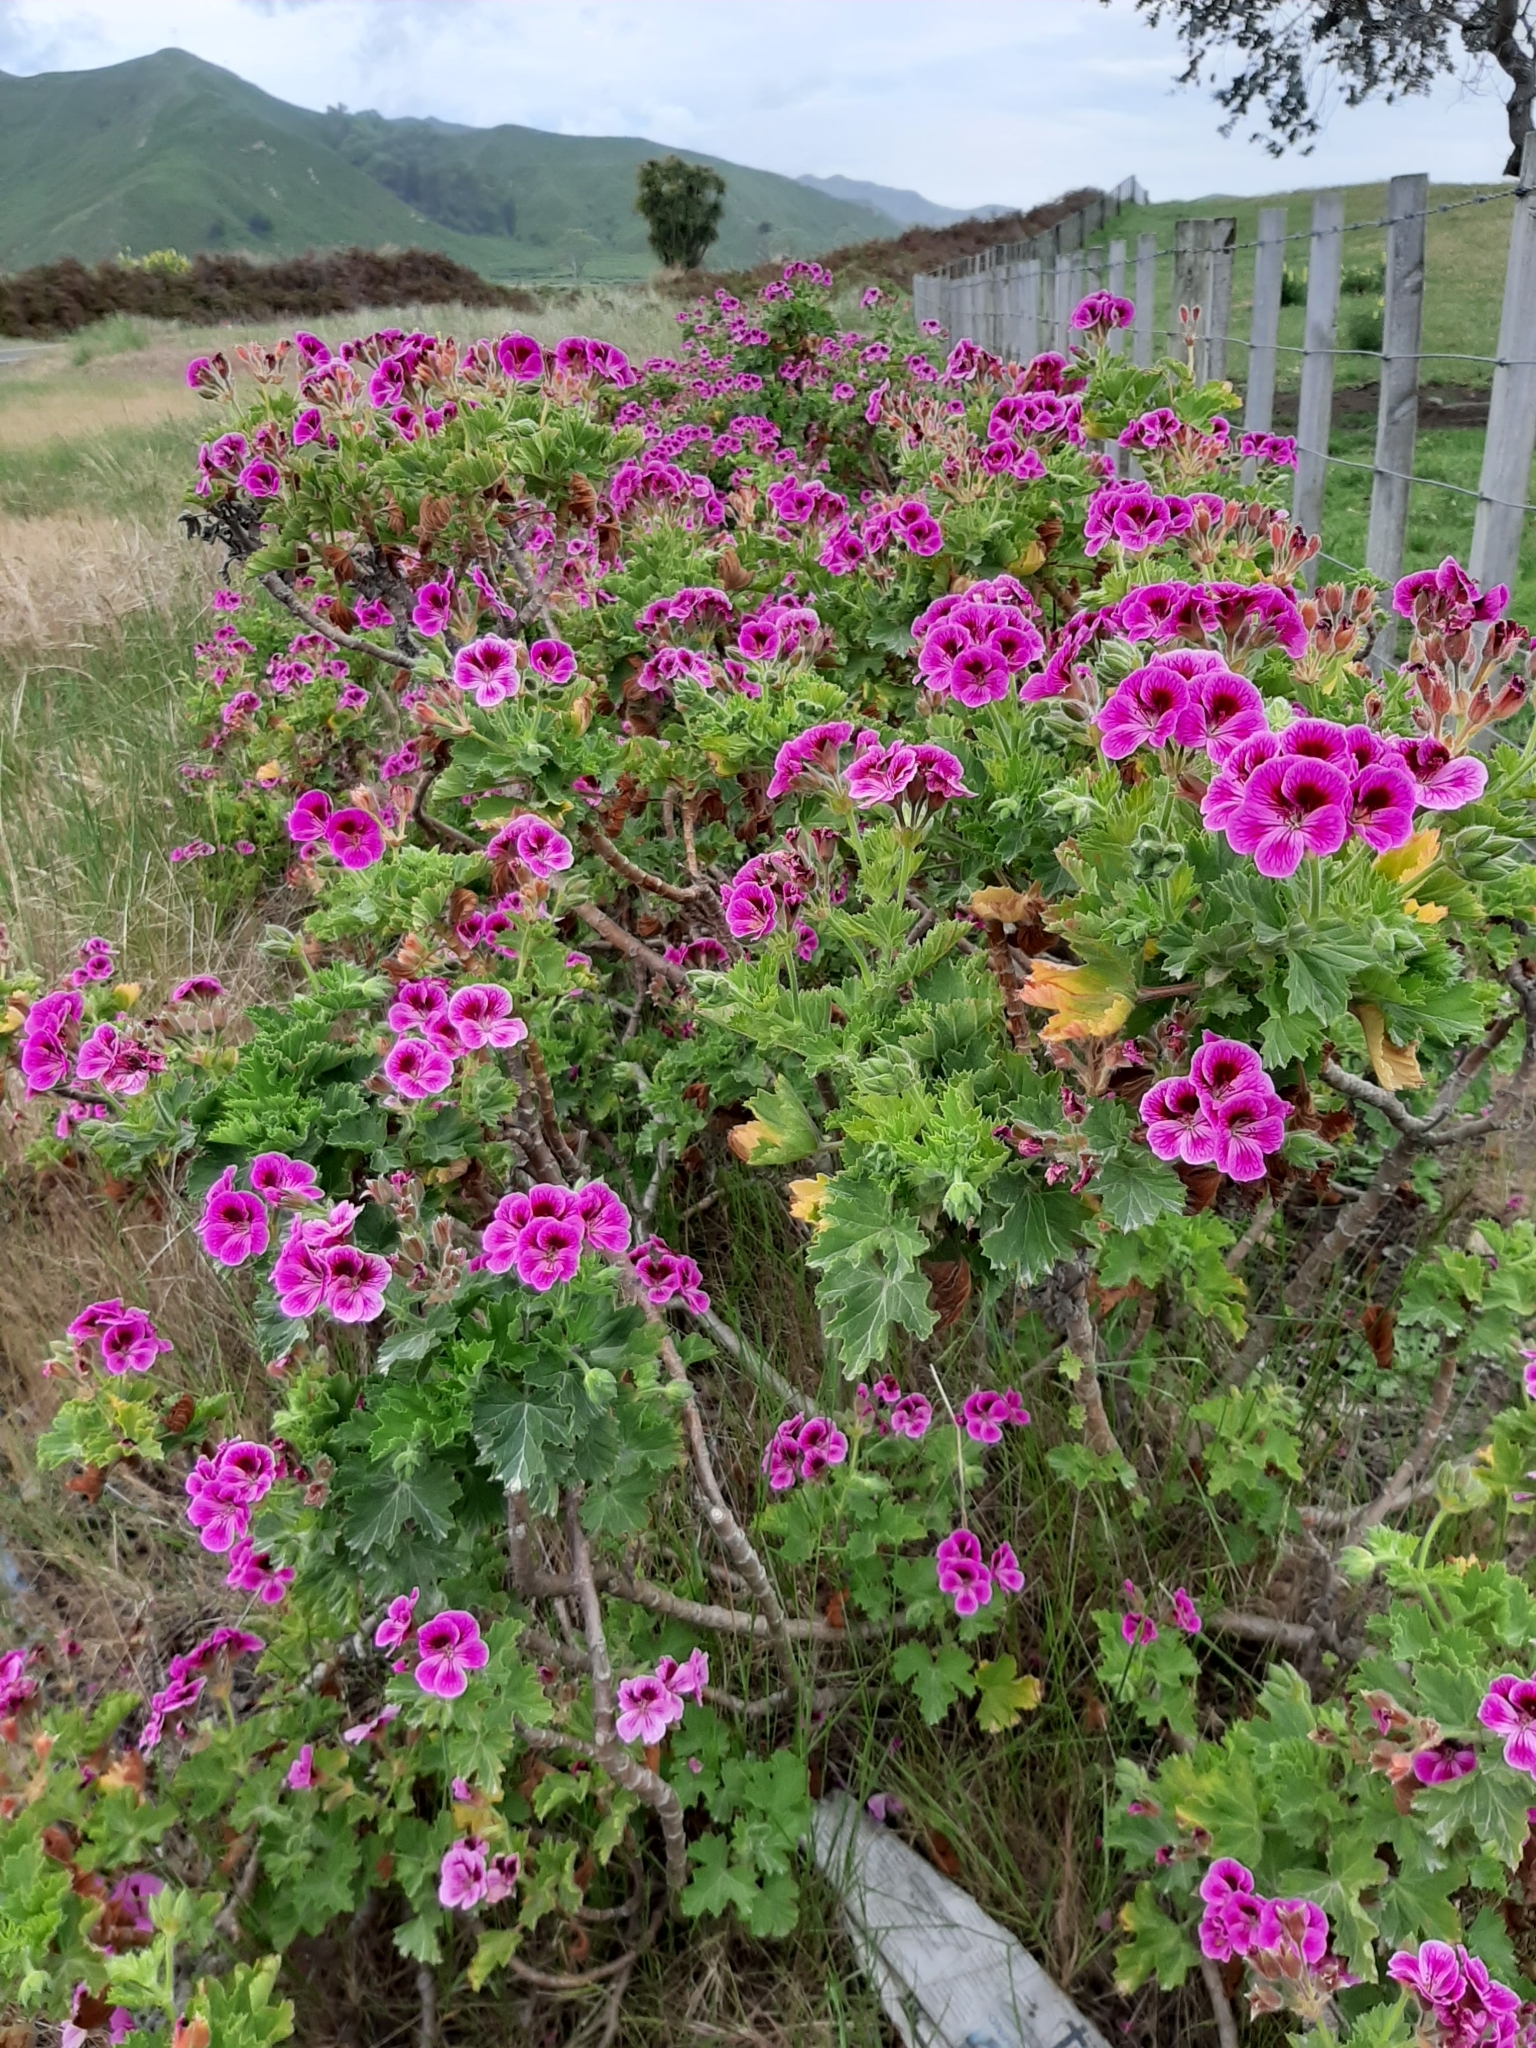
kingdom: Plantae
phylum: Tracheophyta
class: Magnoliopsida
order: Geraniales
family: Geraniaceae
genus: Pelargonium
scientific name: Pelargonium domesticum
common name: Regal pelargonium
